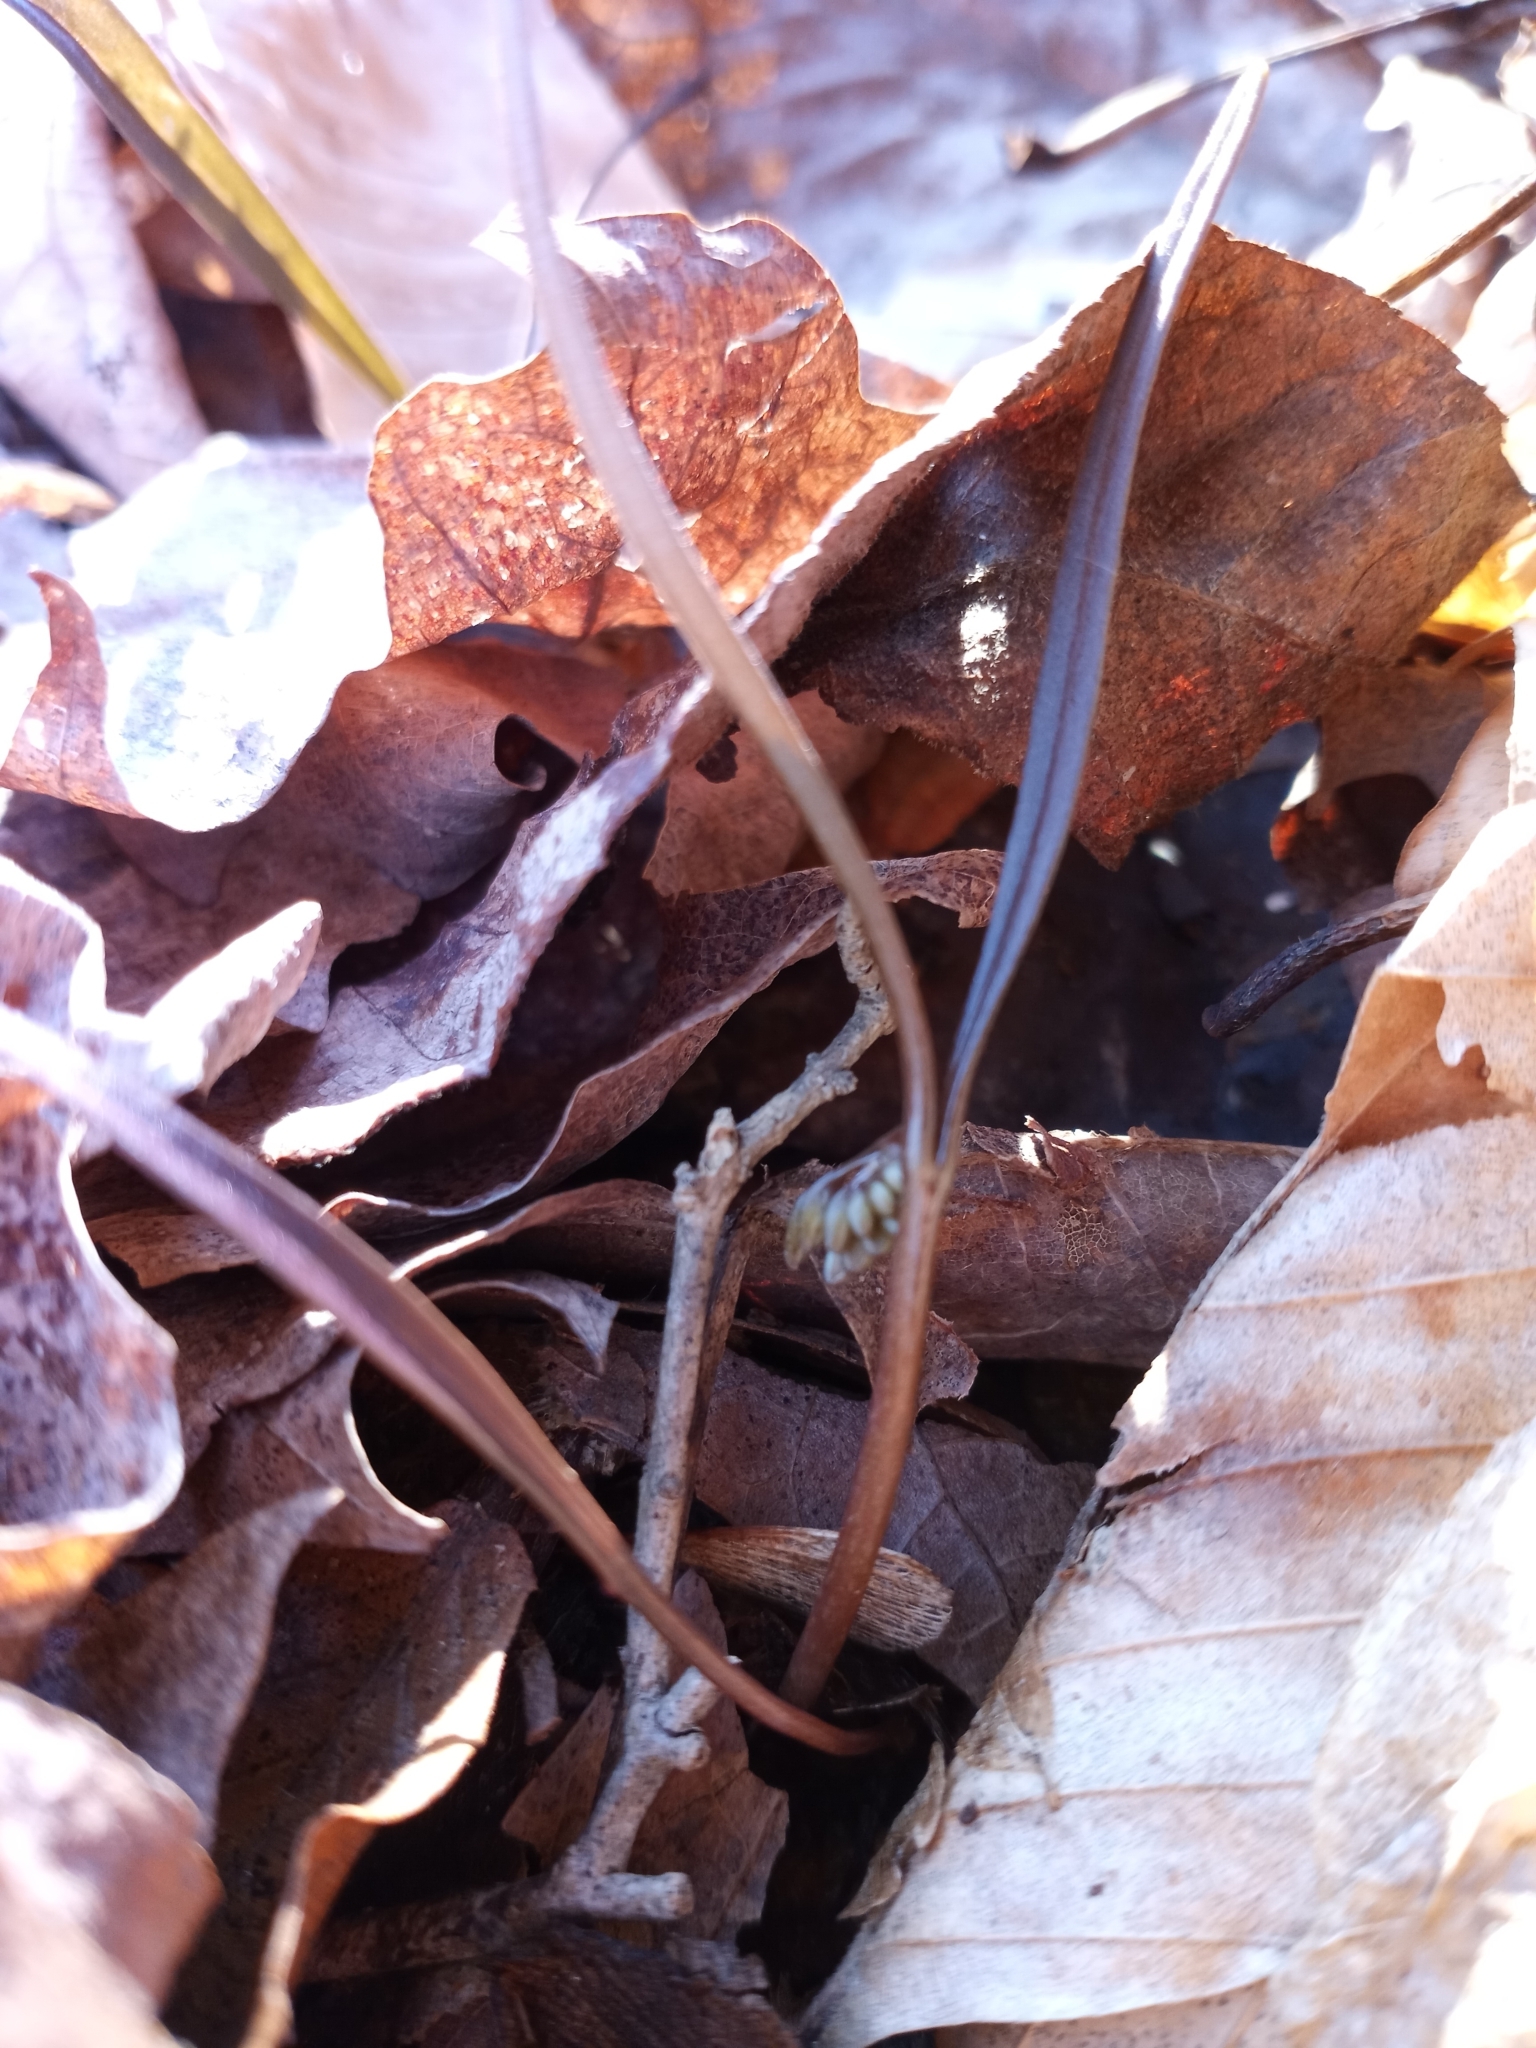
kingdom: Plantae
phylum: Tracheophyta
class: Magnoliopsida
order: Caryophyllales
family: Montiaceae
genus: Claytonia
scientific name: Claytonia virginica
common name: Virginia springbeauty
